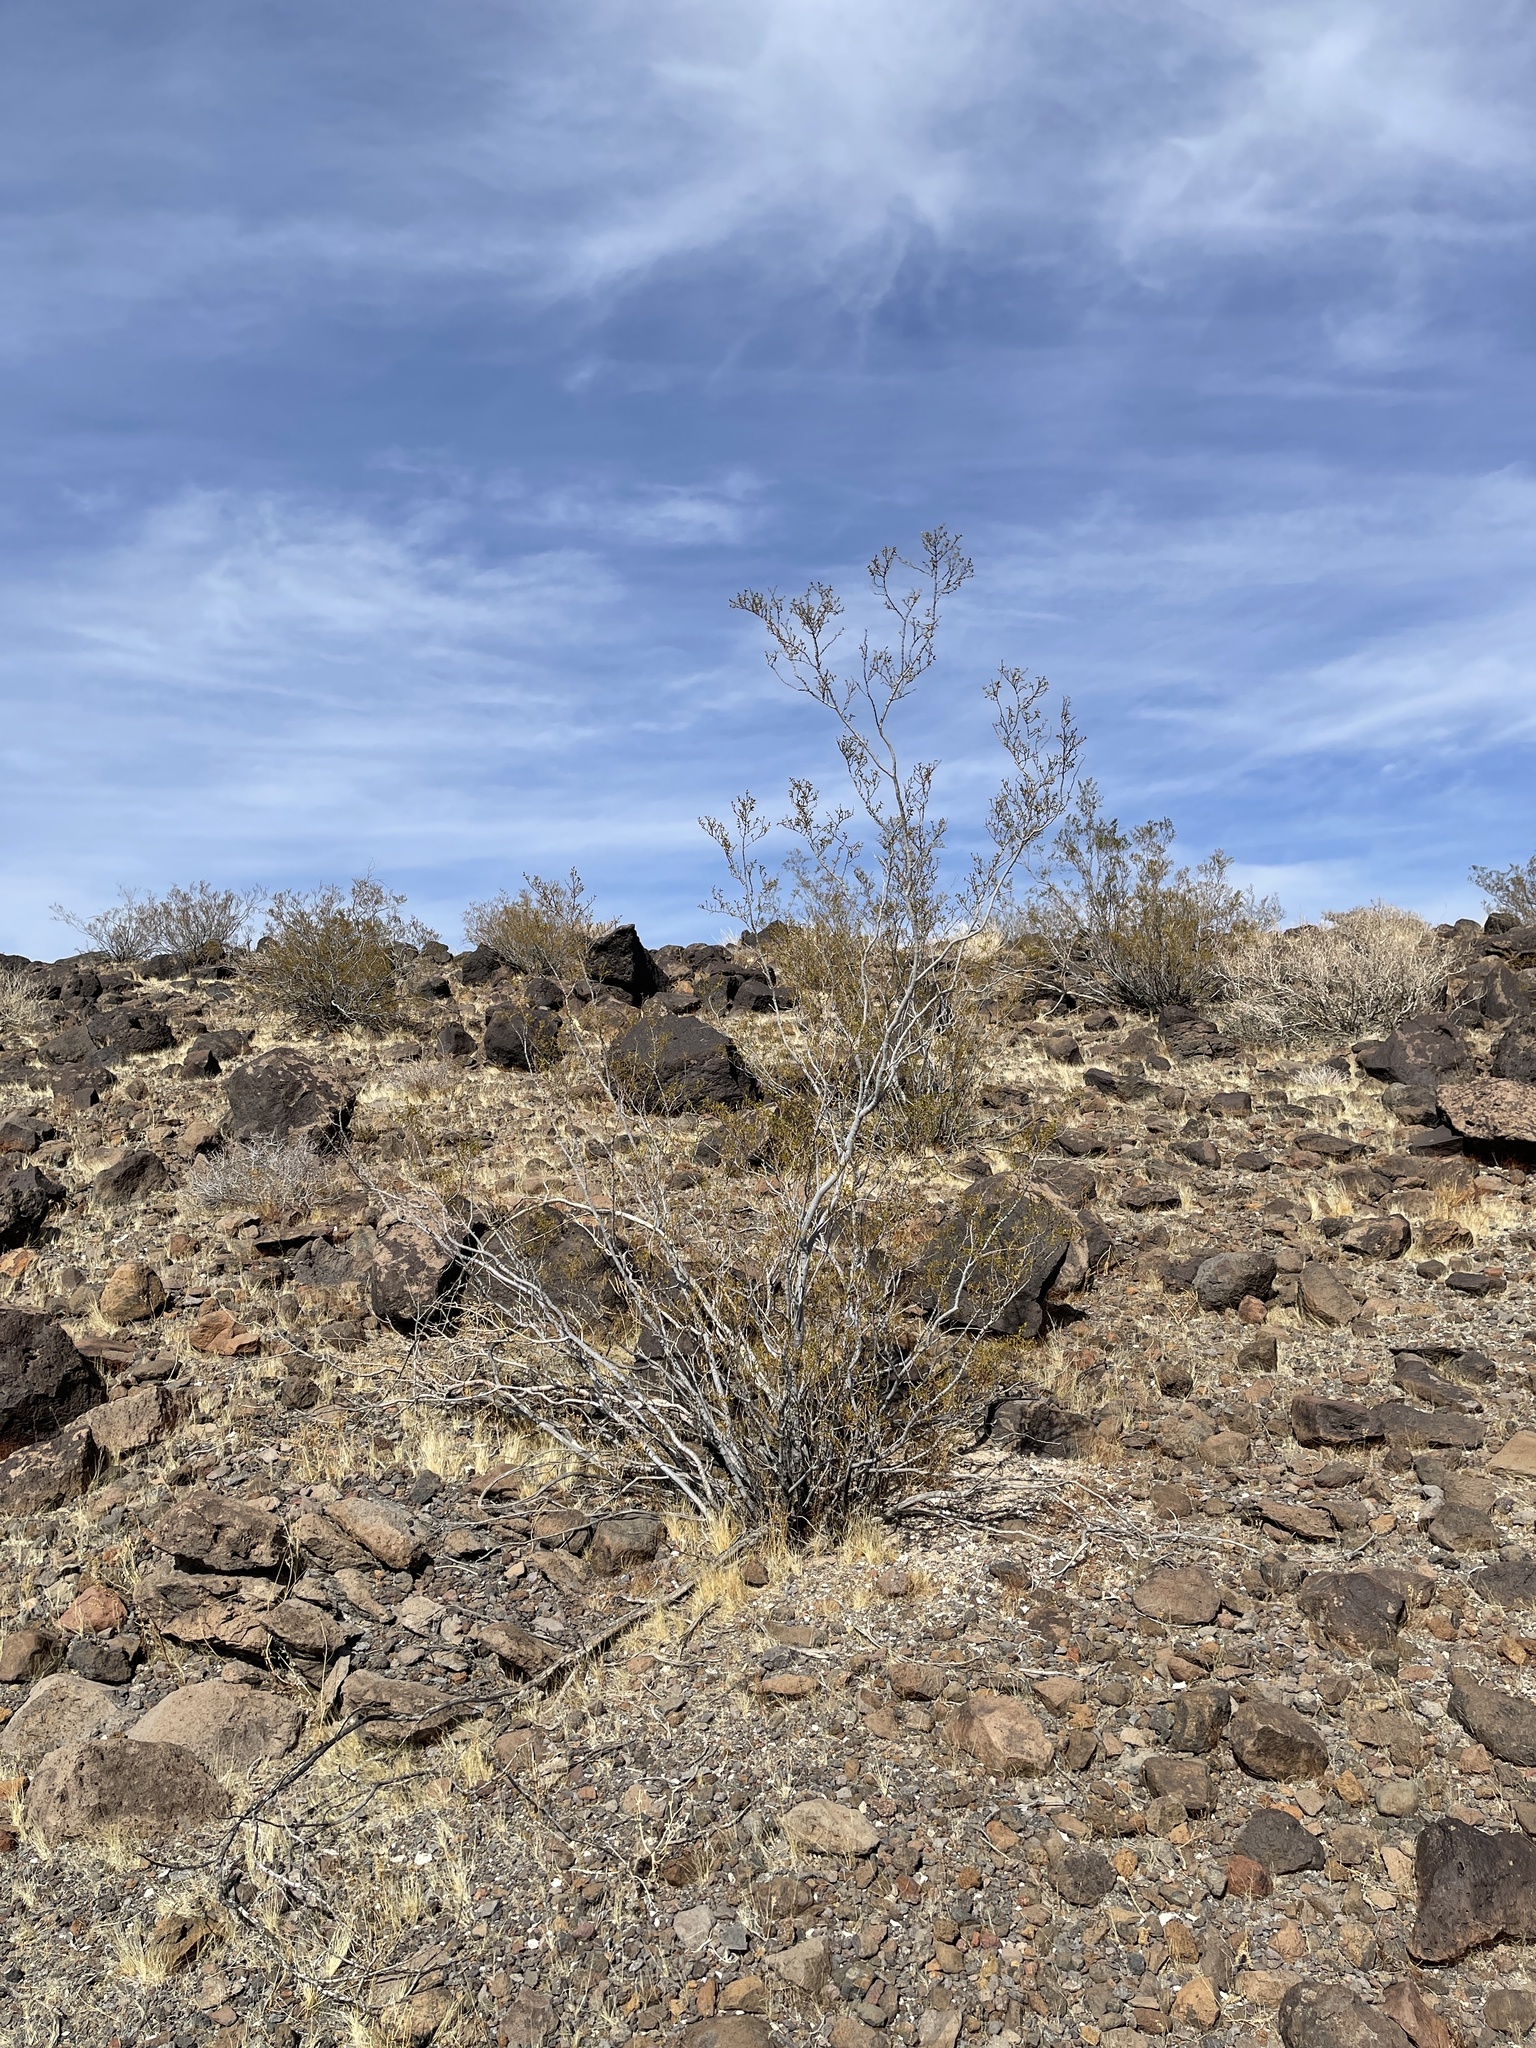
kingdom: Plantae
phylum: Tracheophyta
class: Magnoliopsida
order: Zygophyllales
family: Zygophyllaceae
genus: Larrea
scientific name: Larrea tridentata
